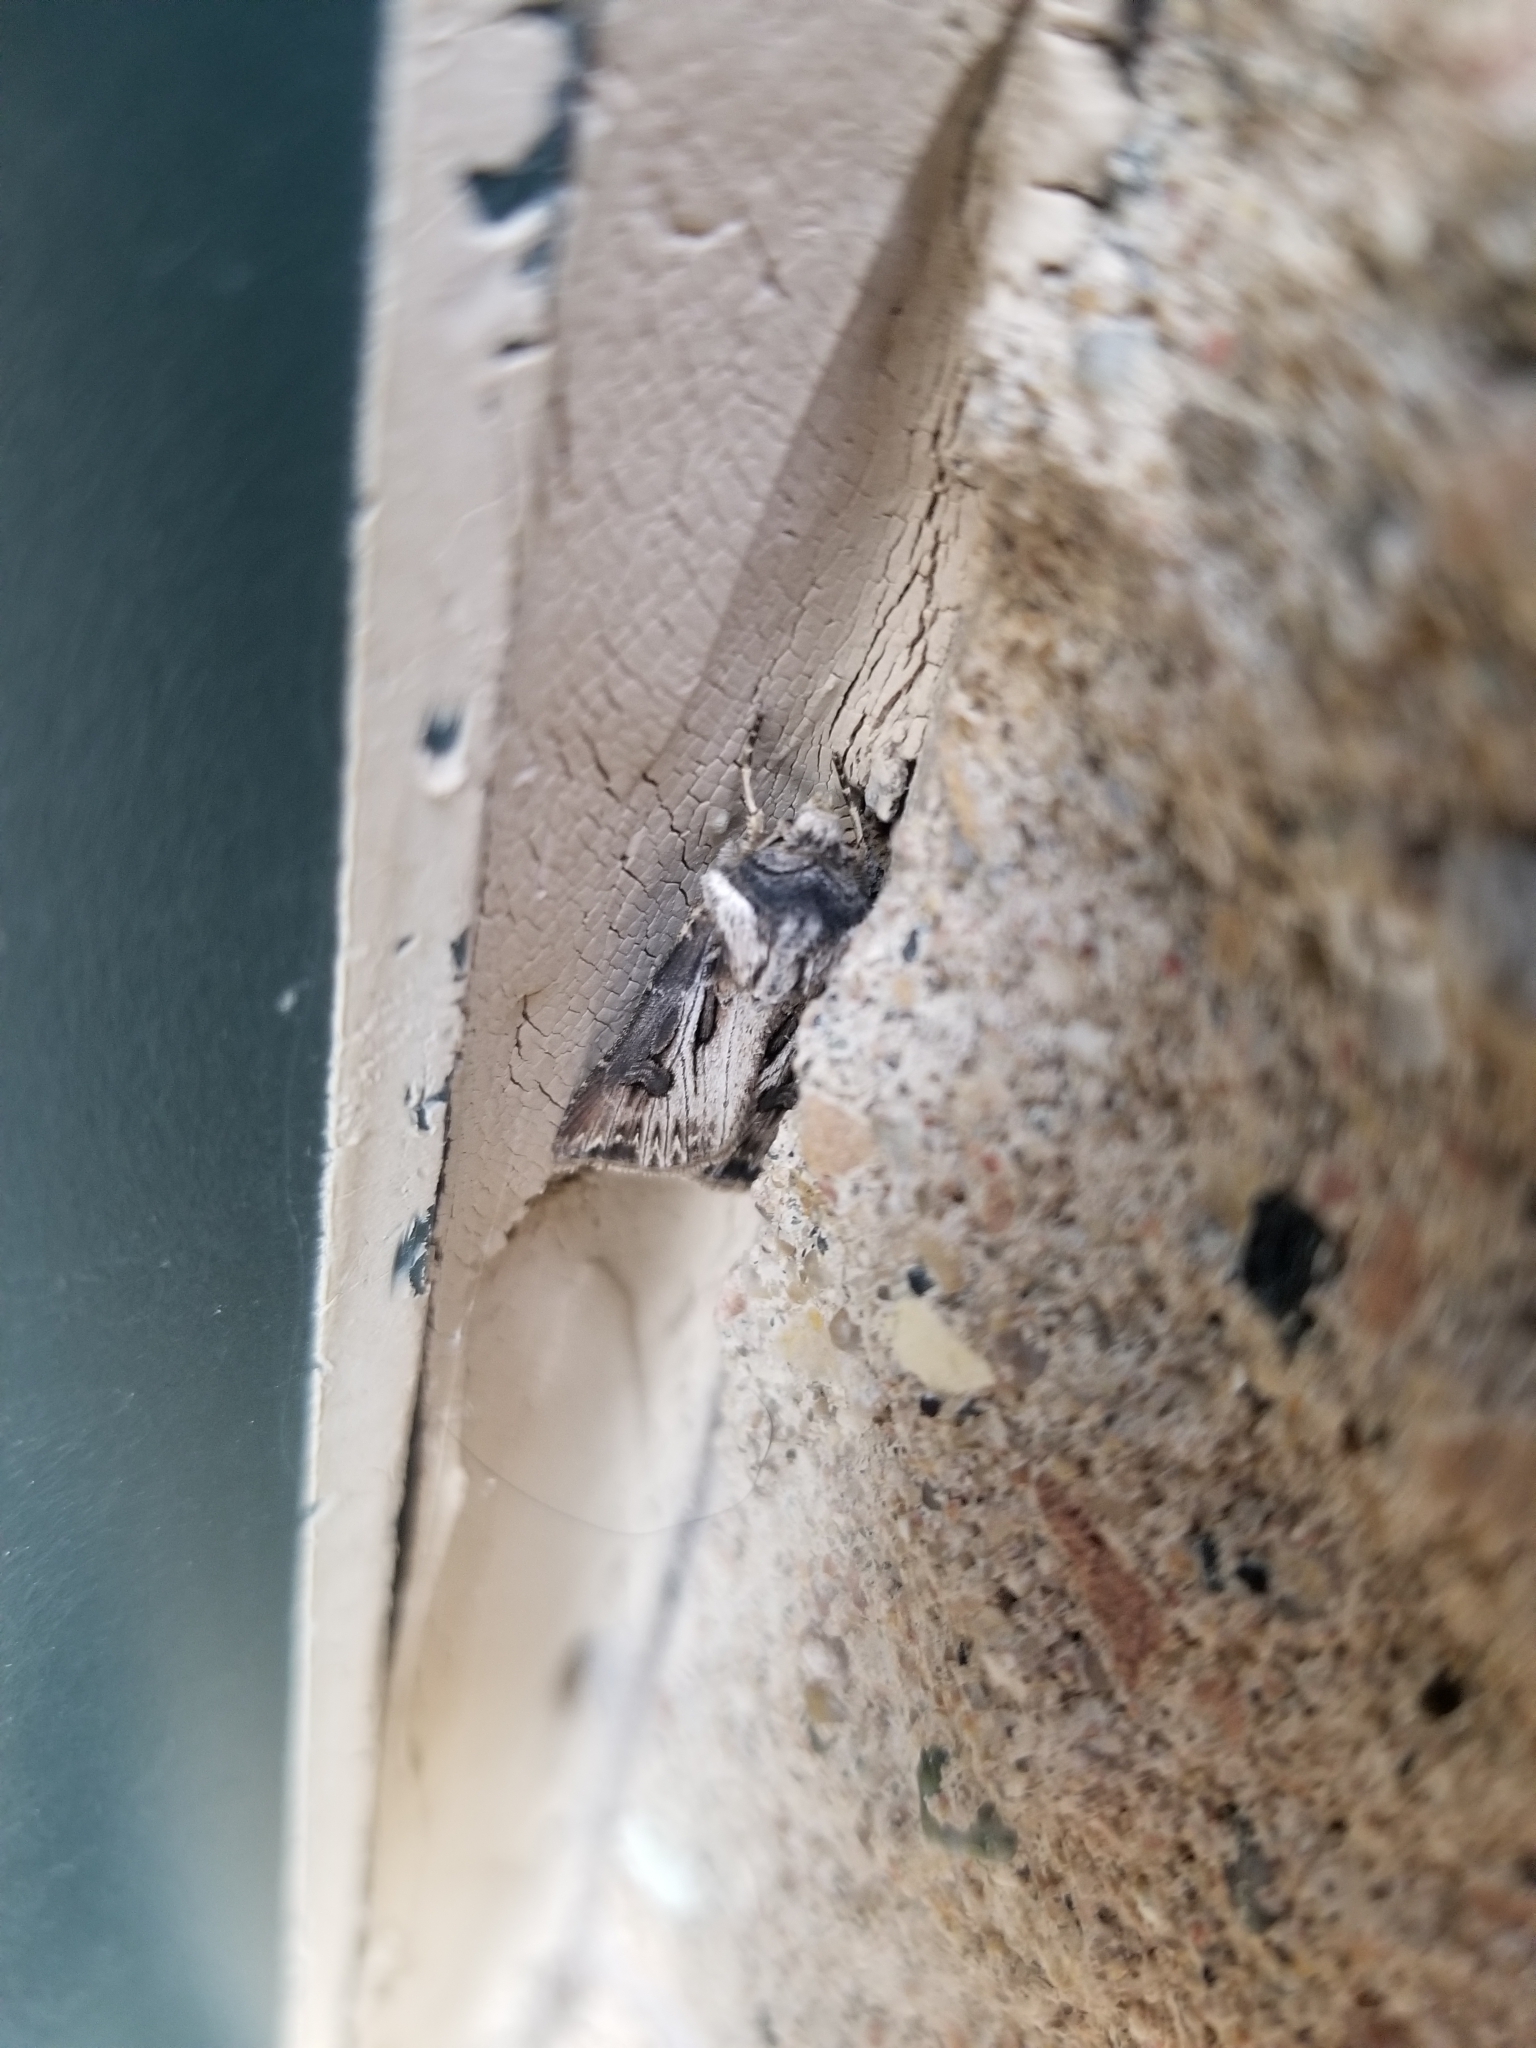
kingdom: Animalia
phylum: Arthropoda
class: Insecta
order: Lepidoptera
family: Noctuidae
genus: Agrotis
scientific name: Agrotis venerabilis
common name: Venerable dart
